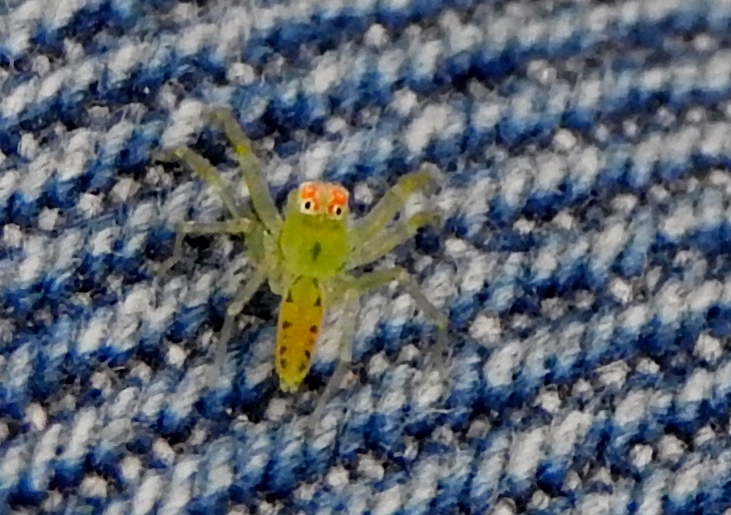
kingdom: Animalia
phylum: Arthropoda
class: Arachnida
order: Araneae
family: Salticidae
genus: Lyssomanes
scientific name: Lyssomanes
